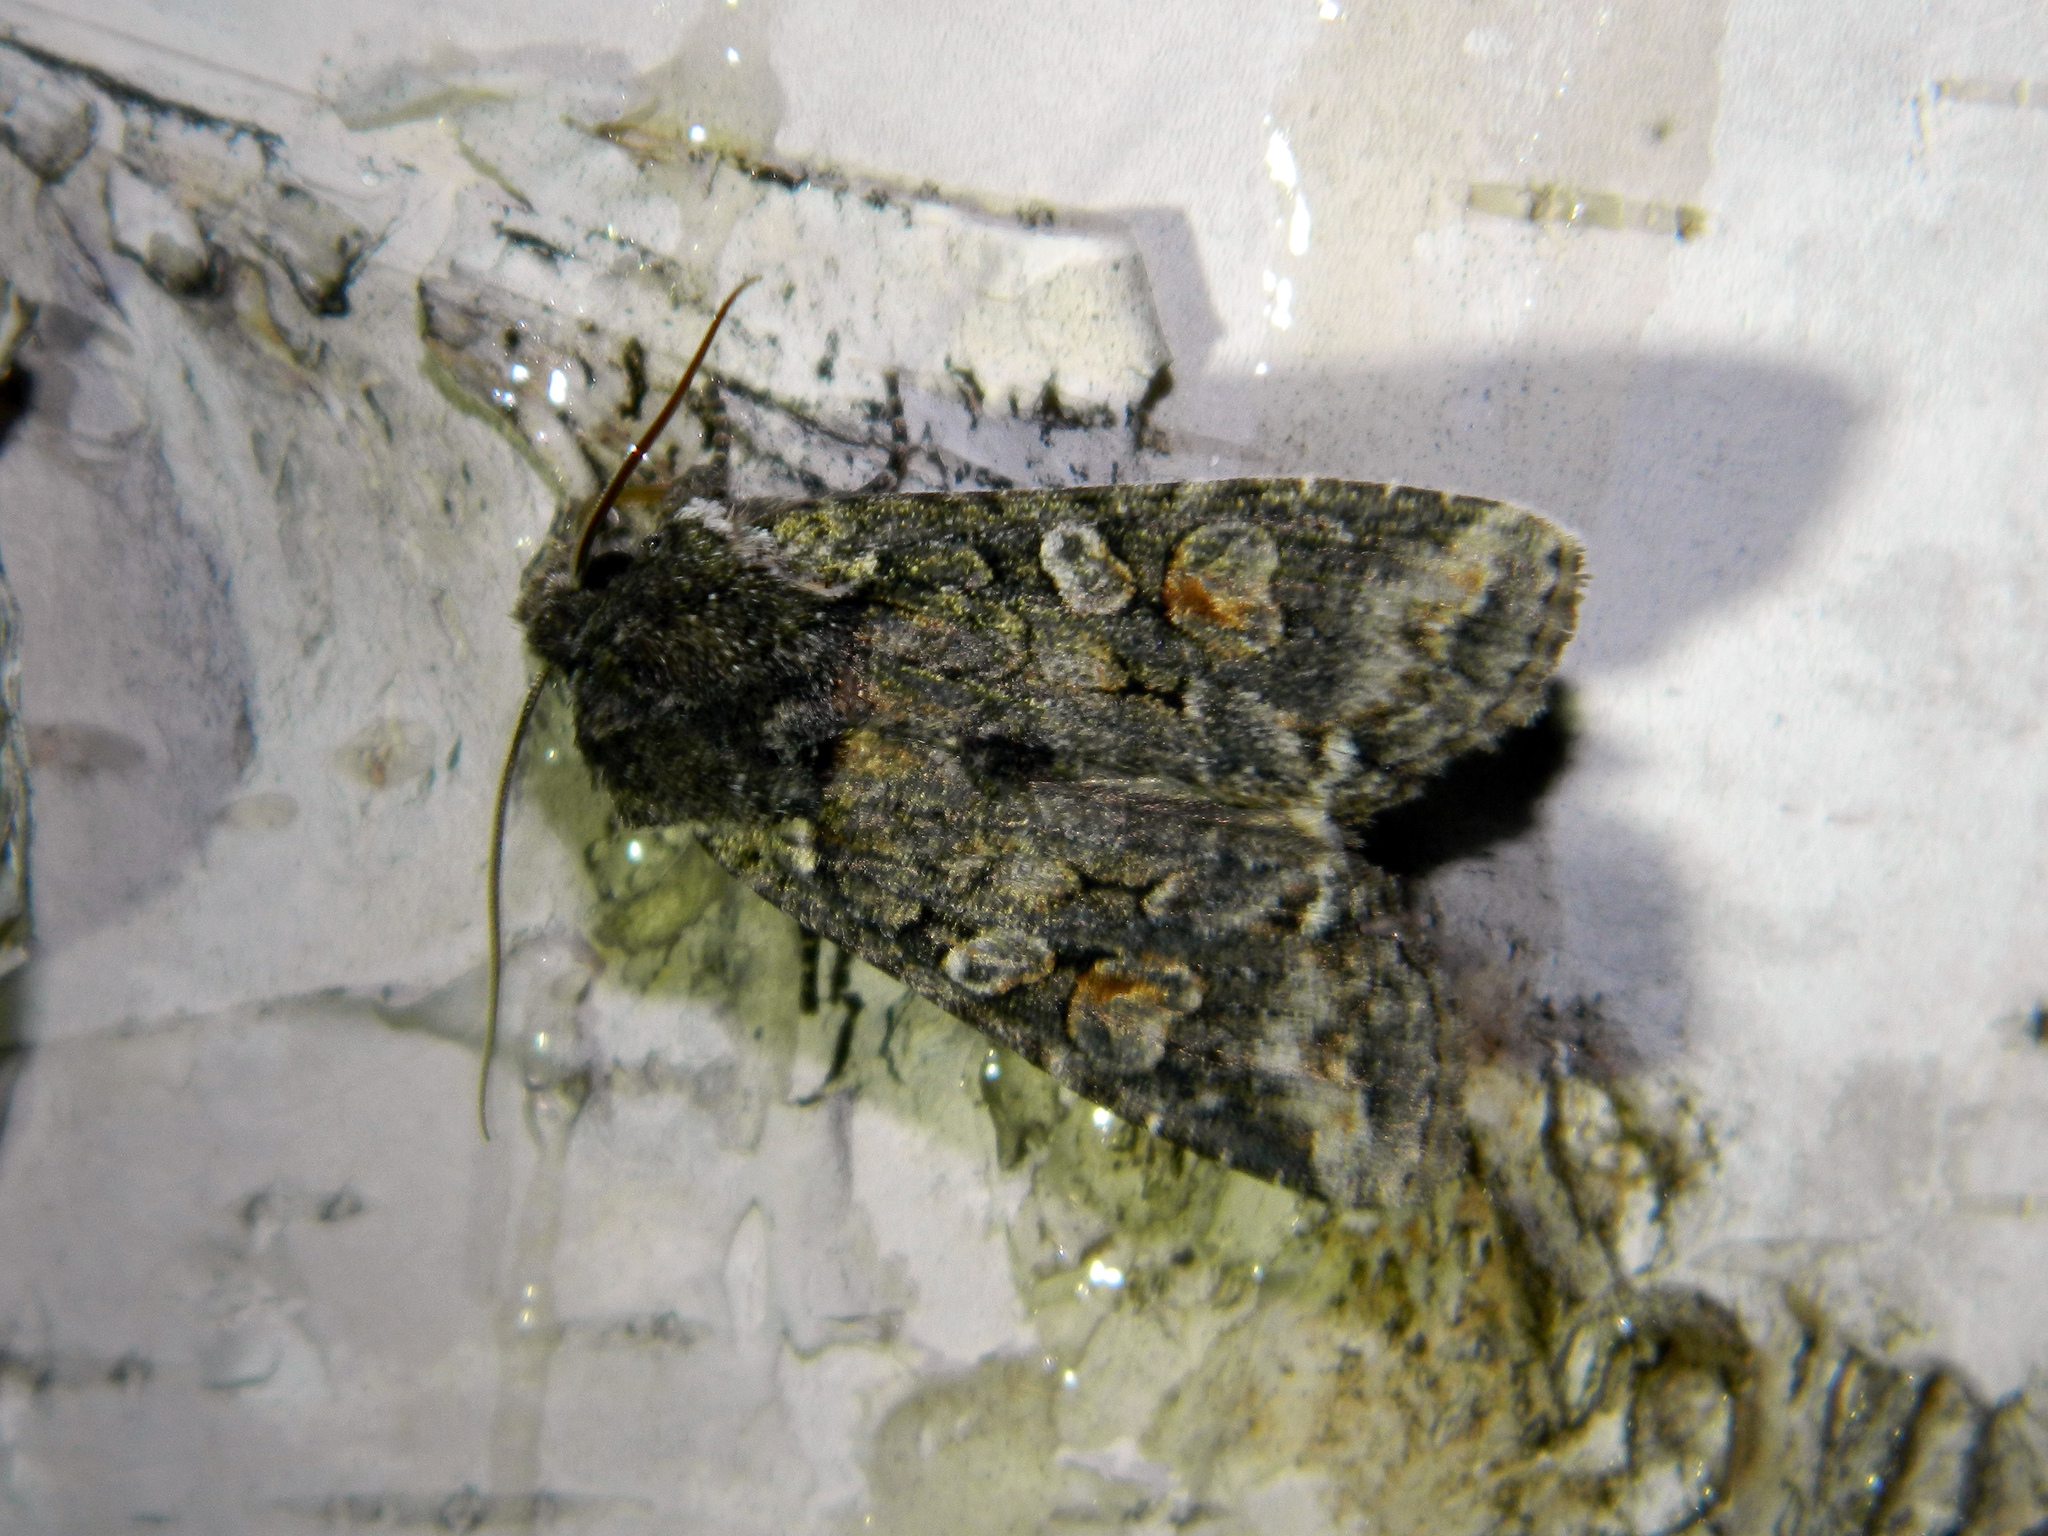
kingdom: Animalia
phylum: Arthropoda
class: Insecta
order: Lepidoptera
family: Noctuidae
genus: Lithophane
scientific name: Lithophane pexata
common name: Plush-naped pinion moth
